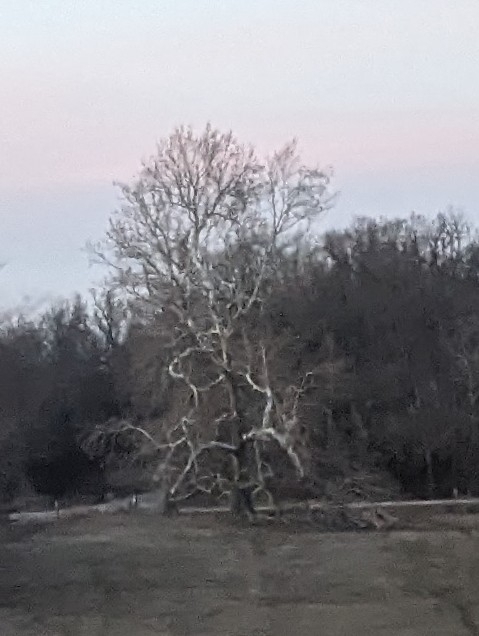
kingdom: Plantae
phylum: Tracheophyta
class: Magnoliopsida
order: Proteales
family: Platanaceae
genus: Platanus
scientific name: Platanus occidentalis
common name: American sycamore
